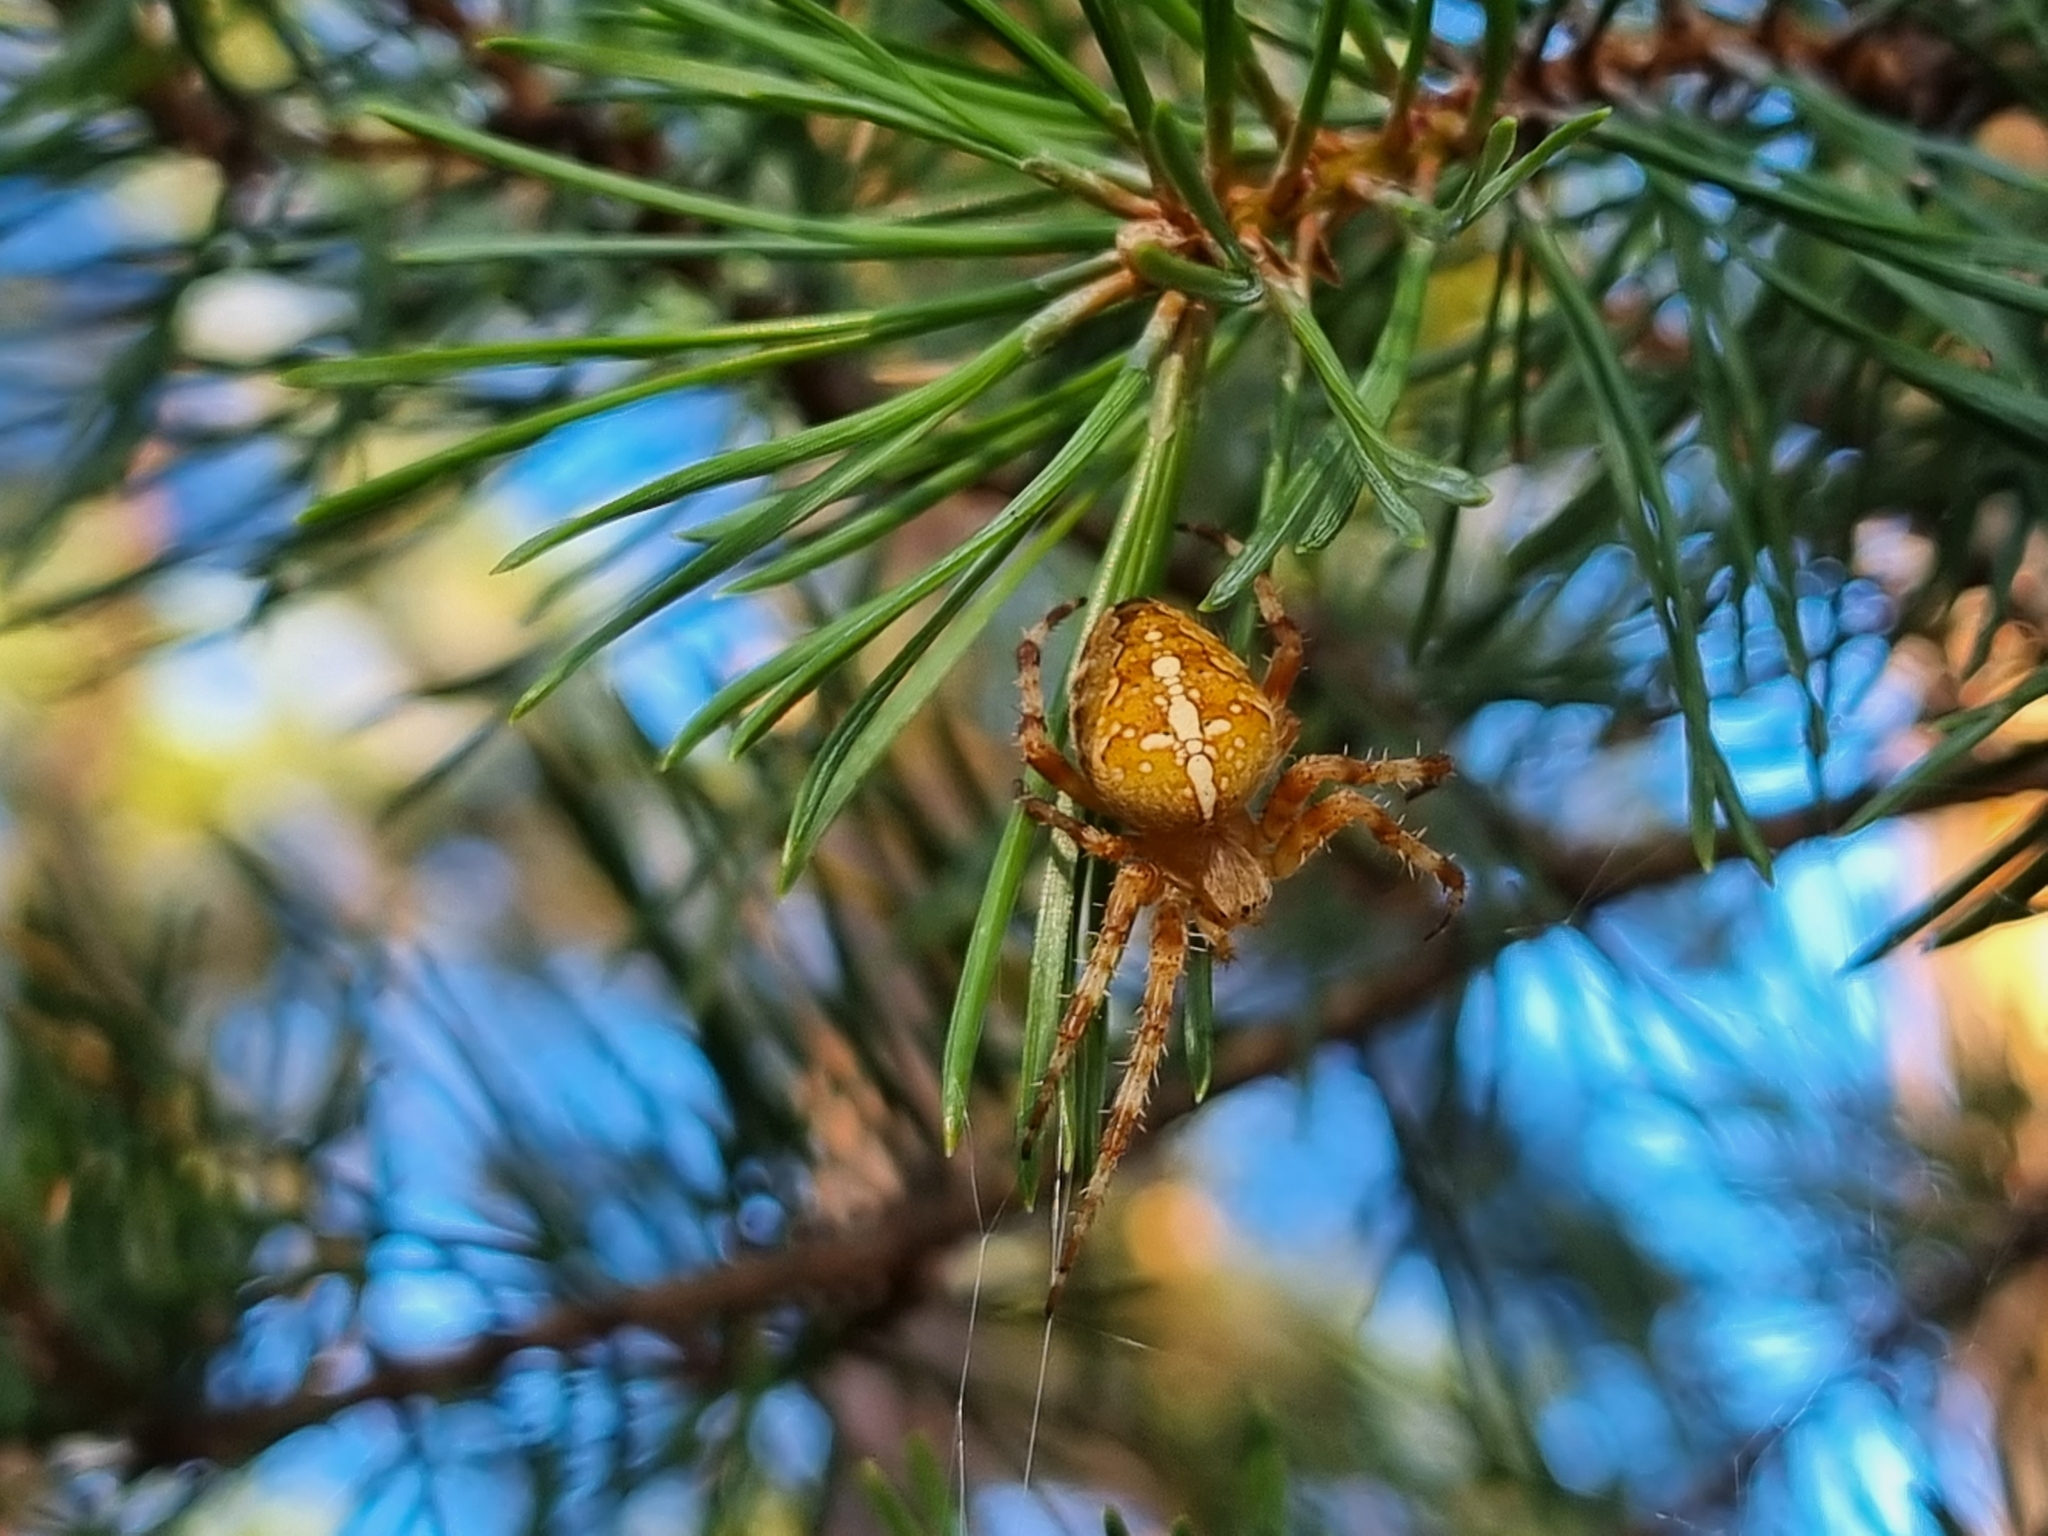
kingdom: Animalia
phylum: Arthropoda
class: Arachnida
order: Araneae
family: Araneidae
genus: Araneus
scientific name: Araneus diadematus
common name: Cross orbweaver
